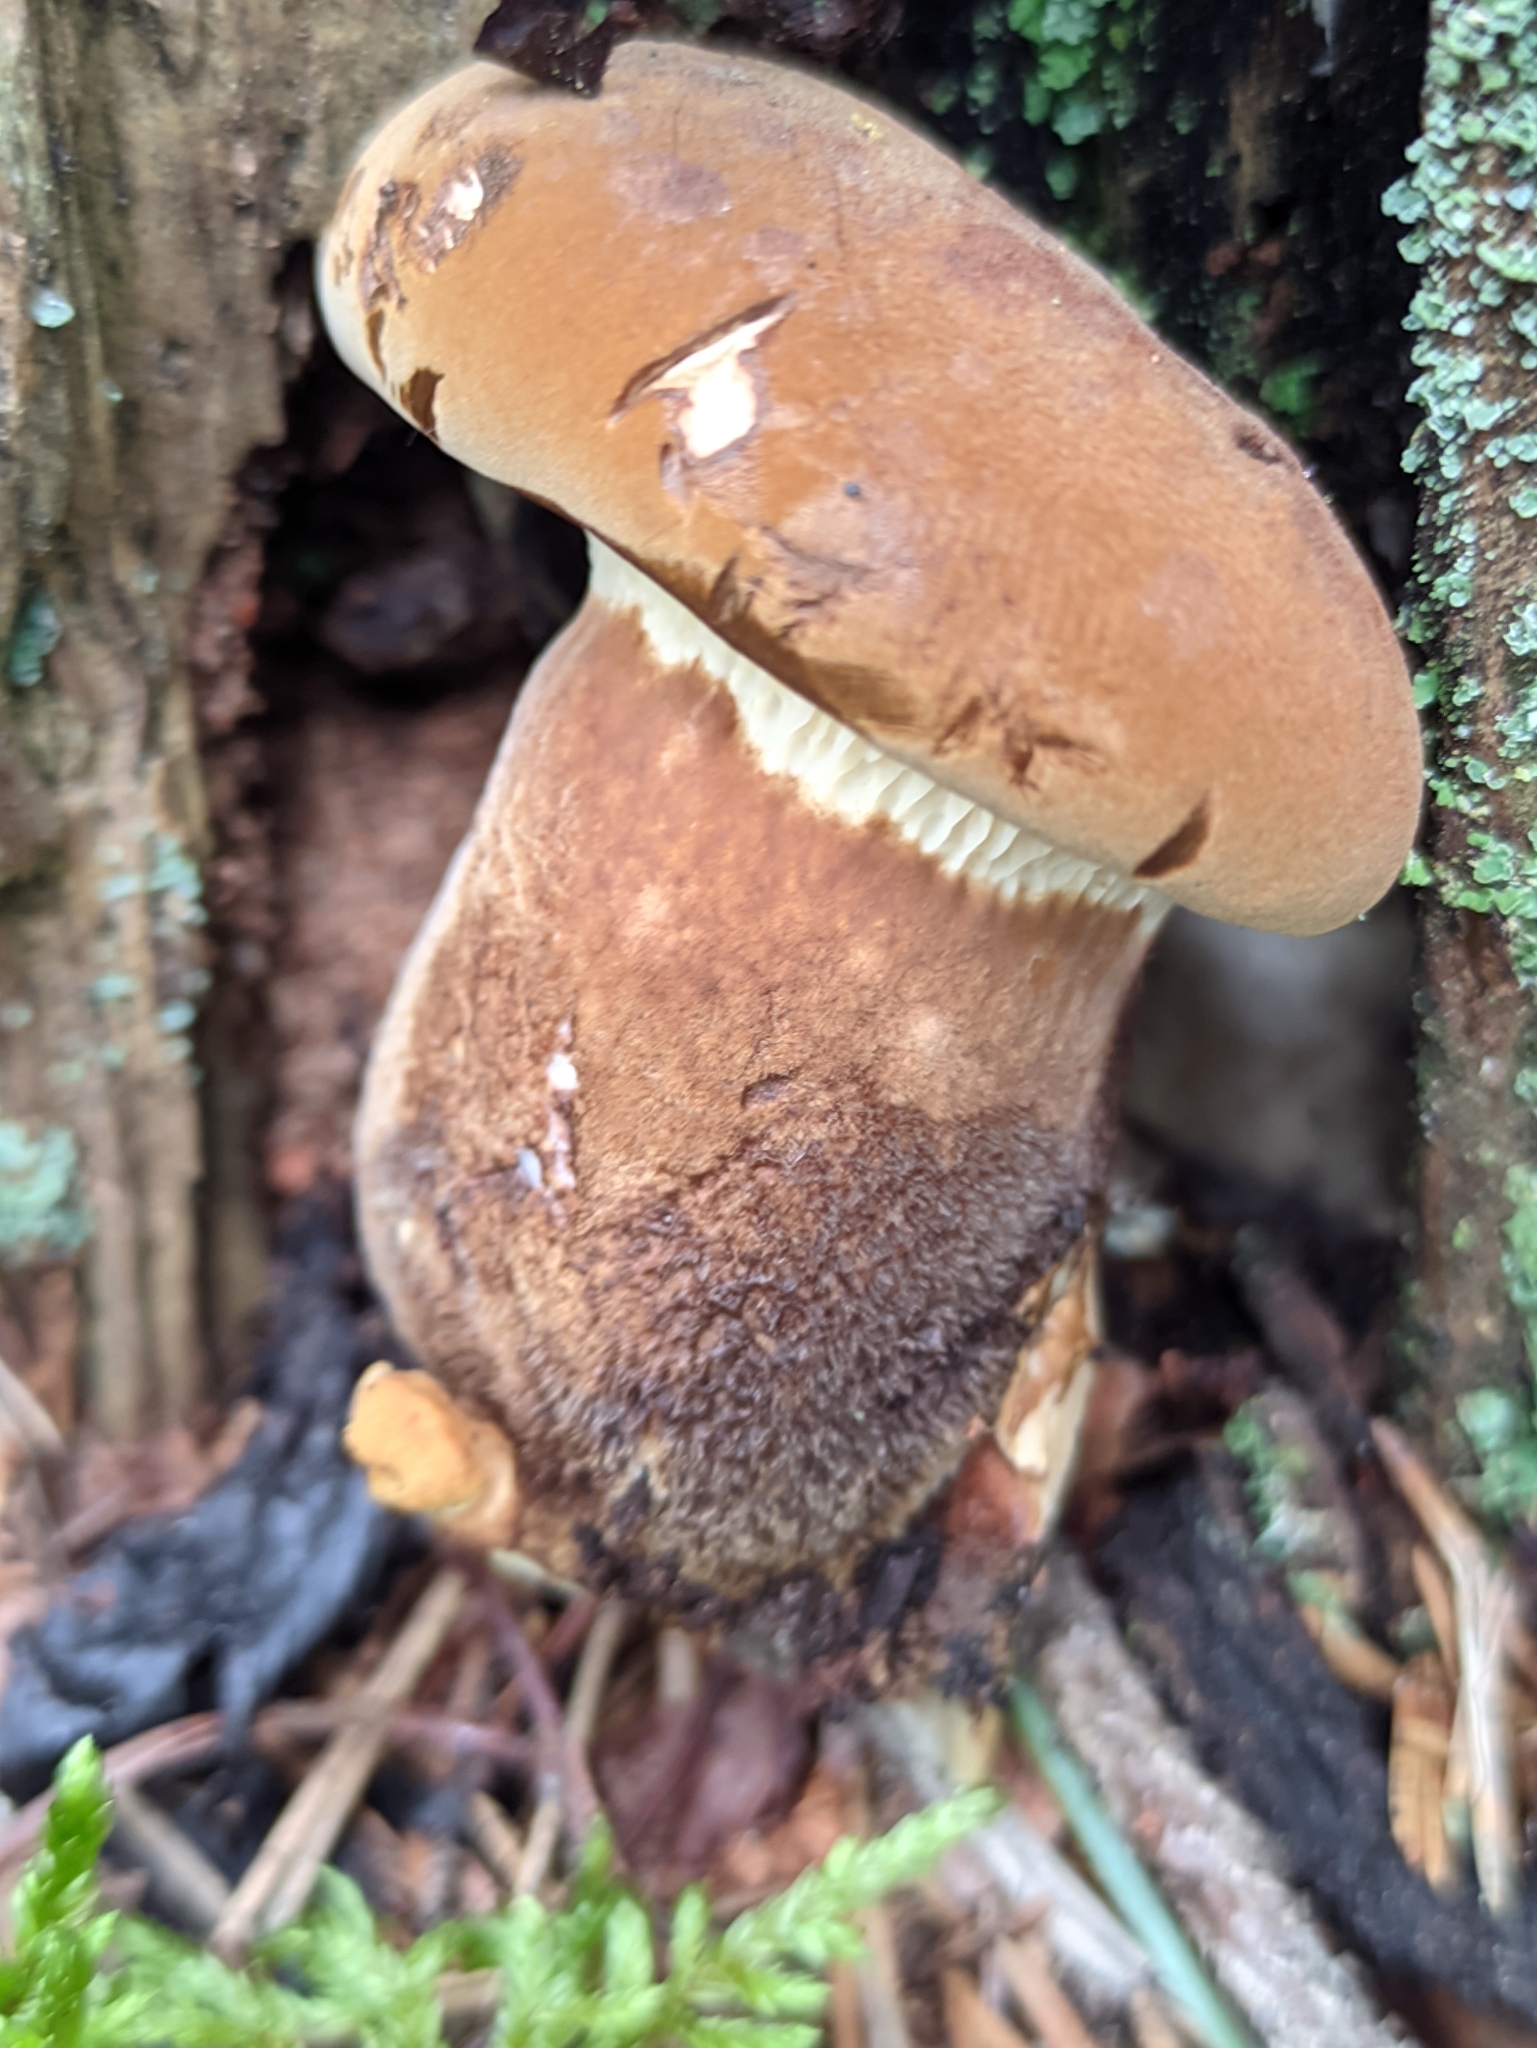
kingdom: Fungi
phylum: Basidiomycota
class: Agaricomycetes
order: Boletales
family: Tapinellaceae
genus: Tapinella
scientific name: Tapinella atrotomentosa
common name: Velvet rollrim
